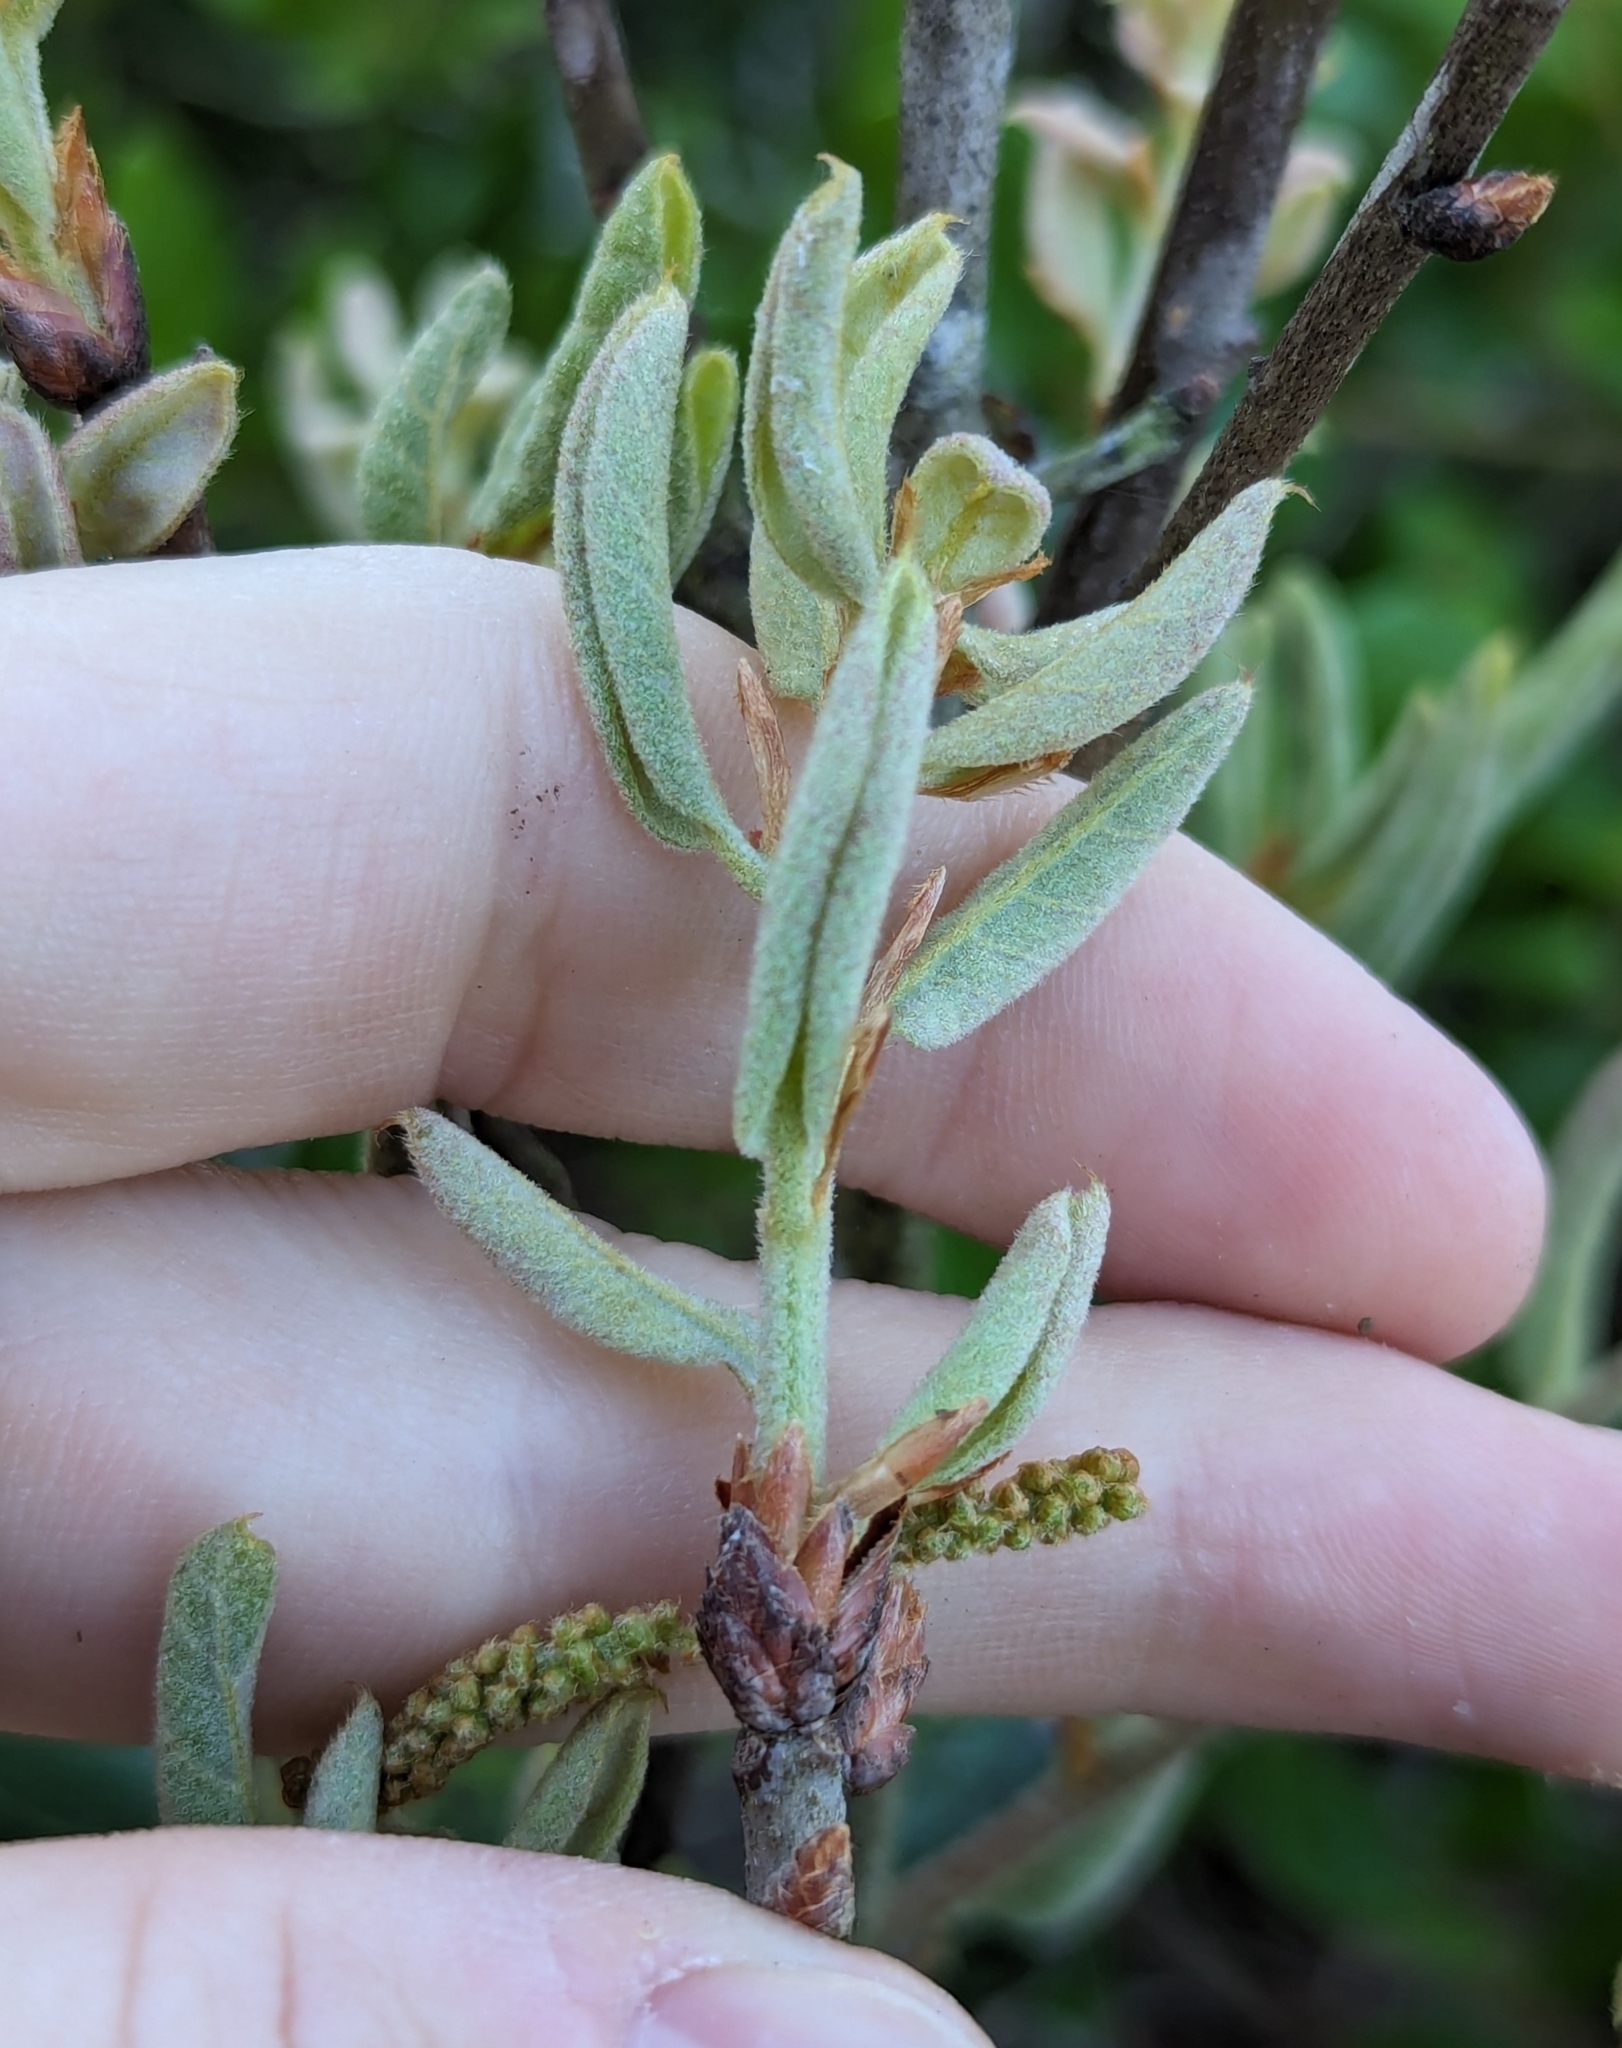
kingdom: Plantae
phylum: Tracheophyta
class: Magnoliopsida
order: Fagales
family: Fagaceae
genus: Quercus
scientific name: Quercus inopina
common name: Sandhill oak
